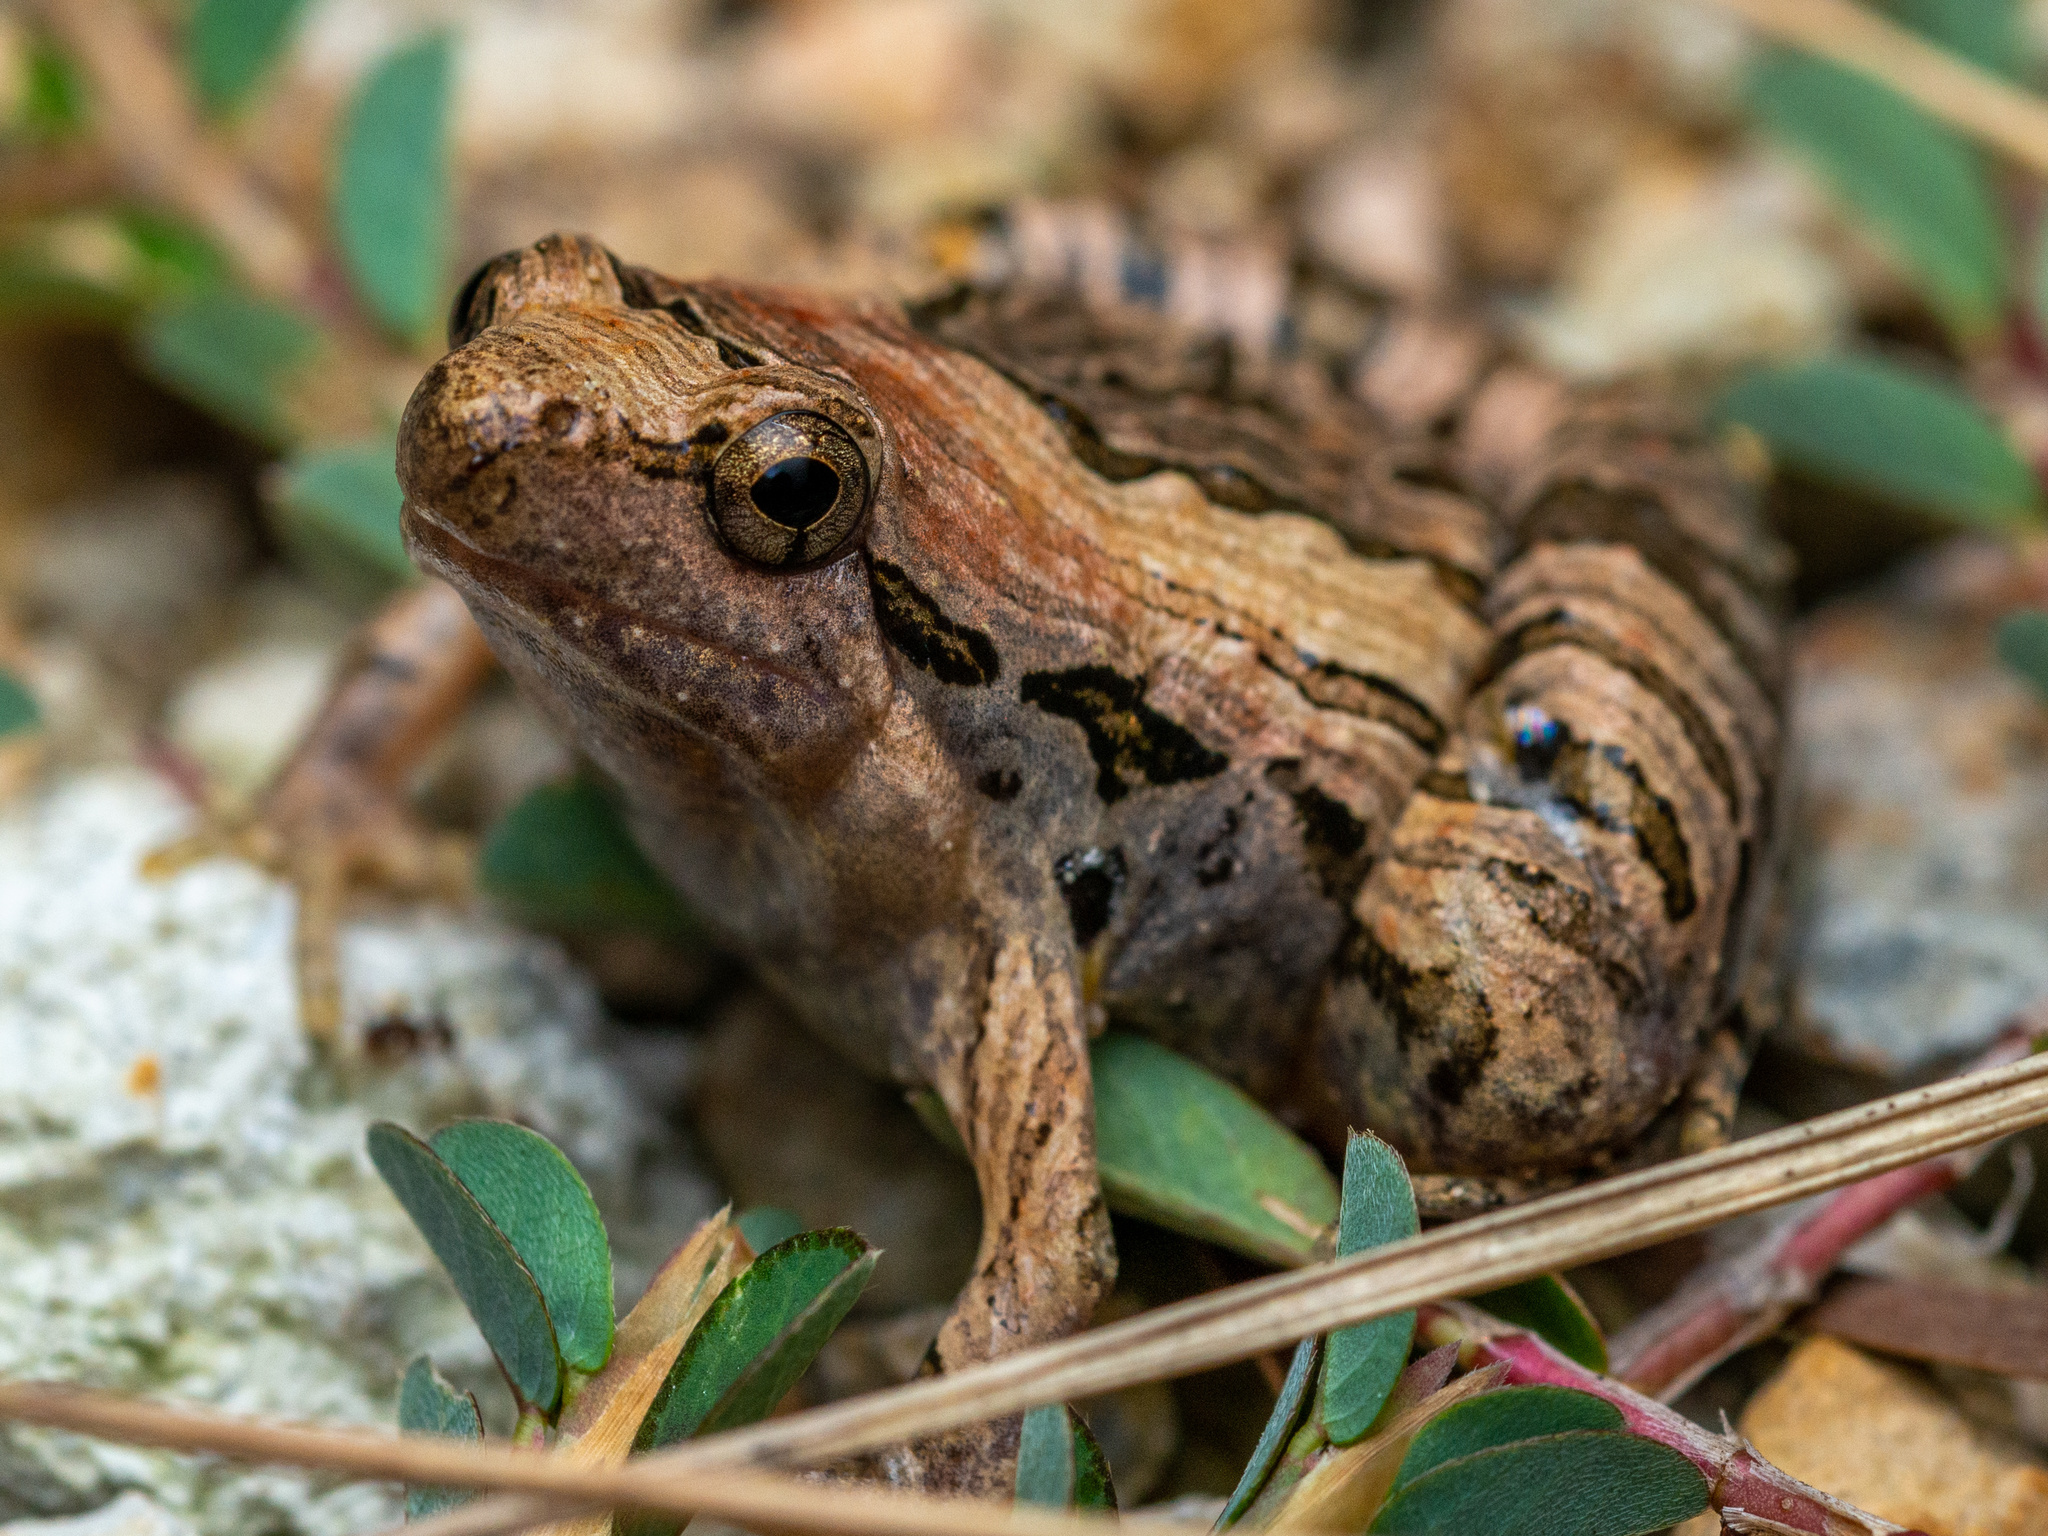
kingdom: Animalia
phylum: Chordata
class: Amphibia
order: Anura
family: Microhylidae
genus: Microhyla
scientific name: Microhyla pulchra
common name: Beautiful pygmy frog
